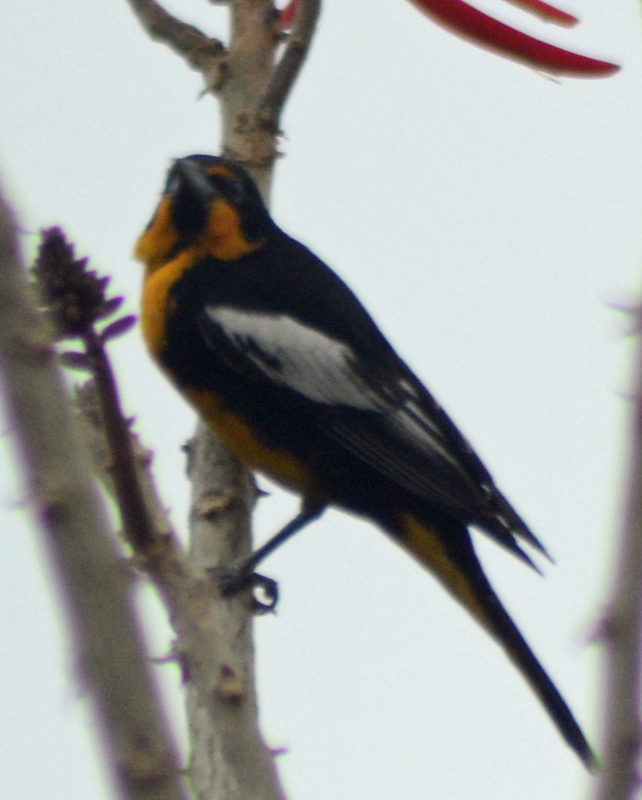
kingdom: Animalia
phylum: Chordata
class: Aves
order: Passeriformes
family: Icteridae
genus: Icterus
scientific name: Icterus abeillei
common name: Black-backed oriole
